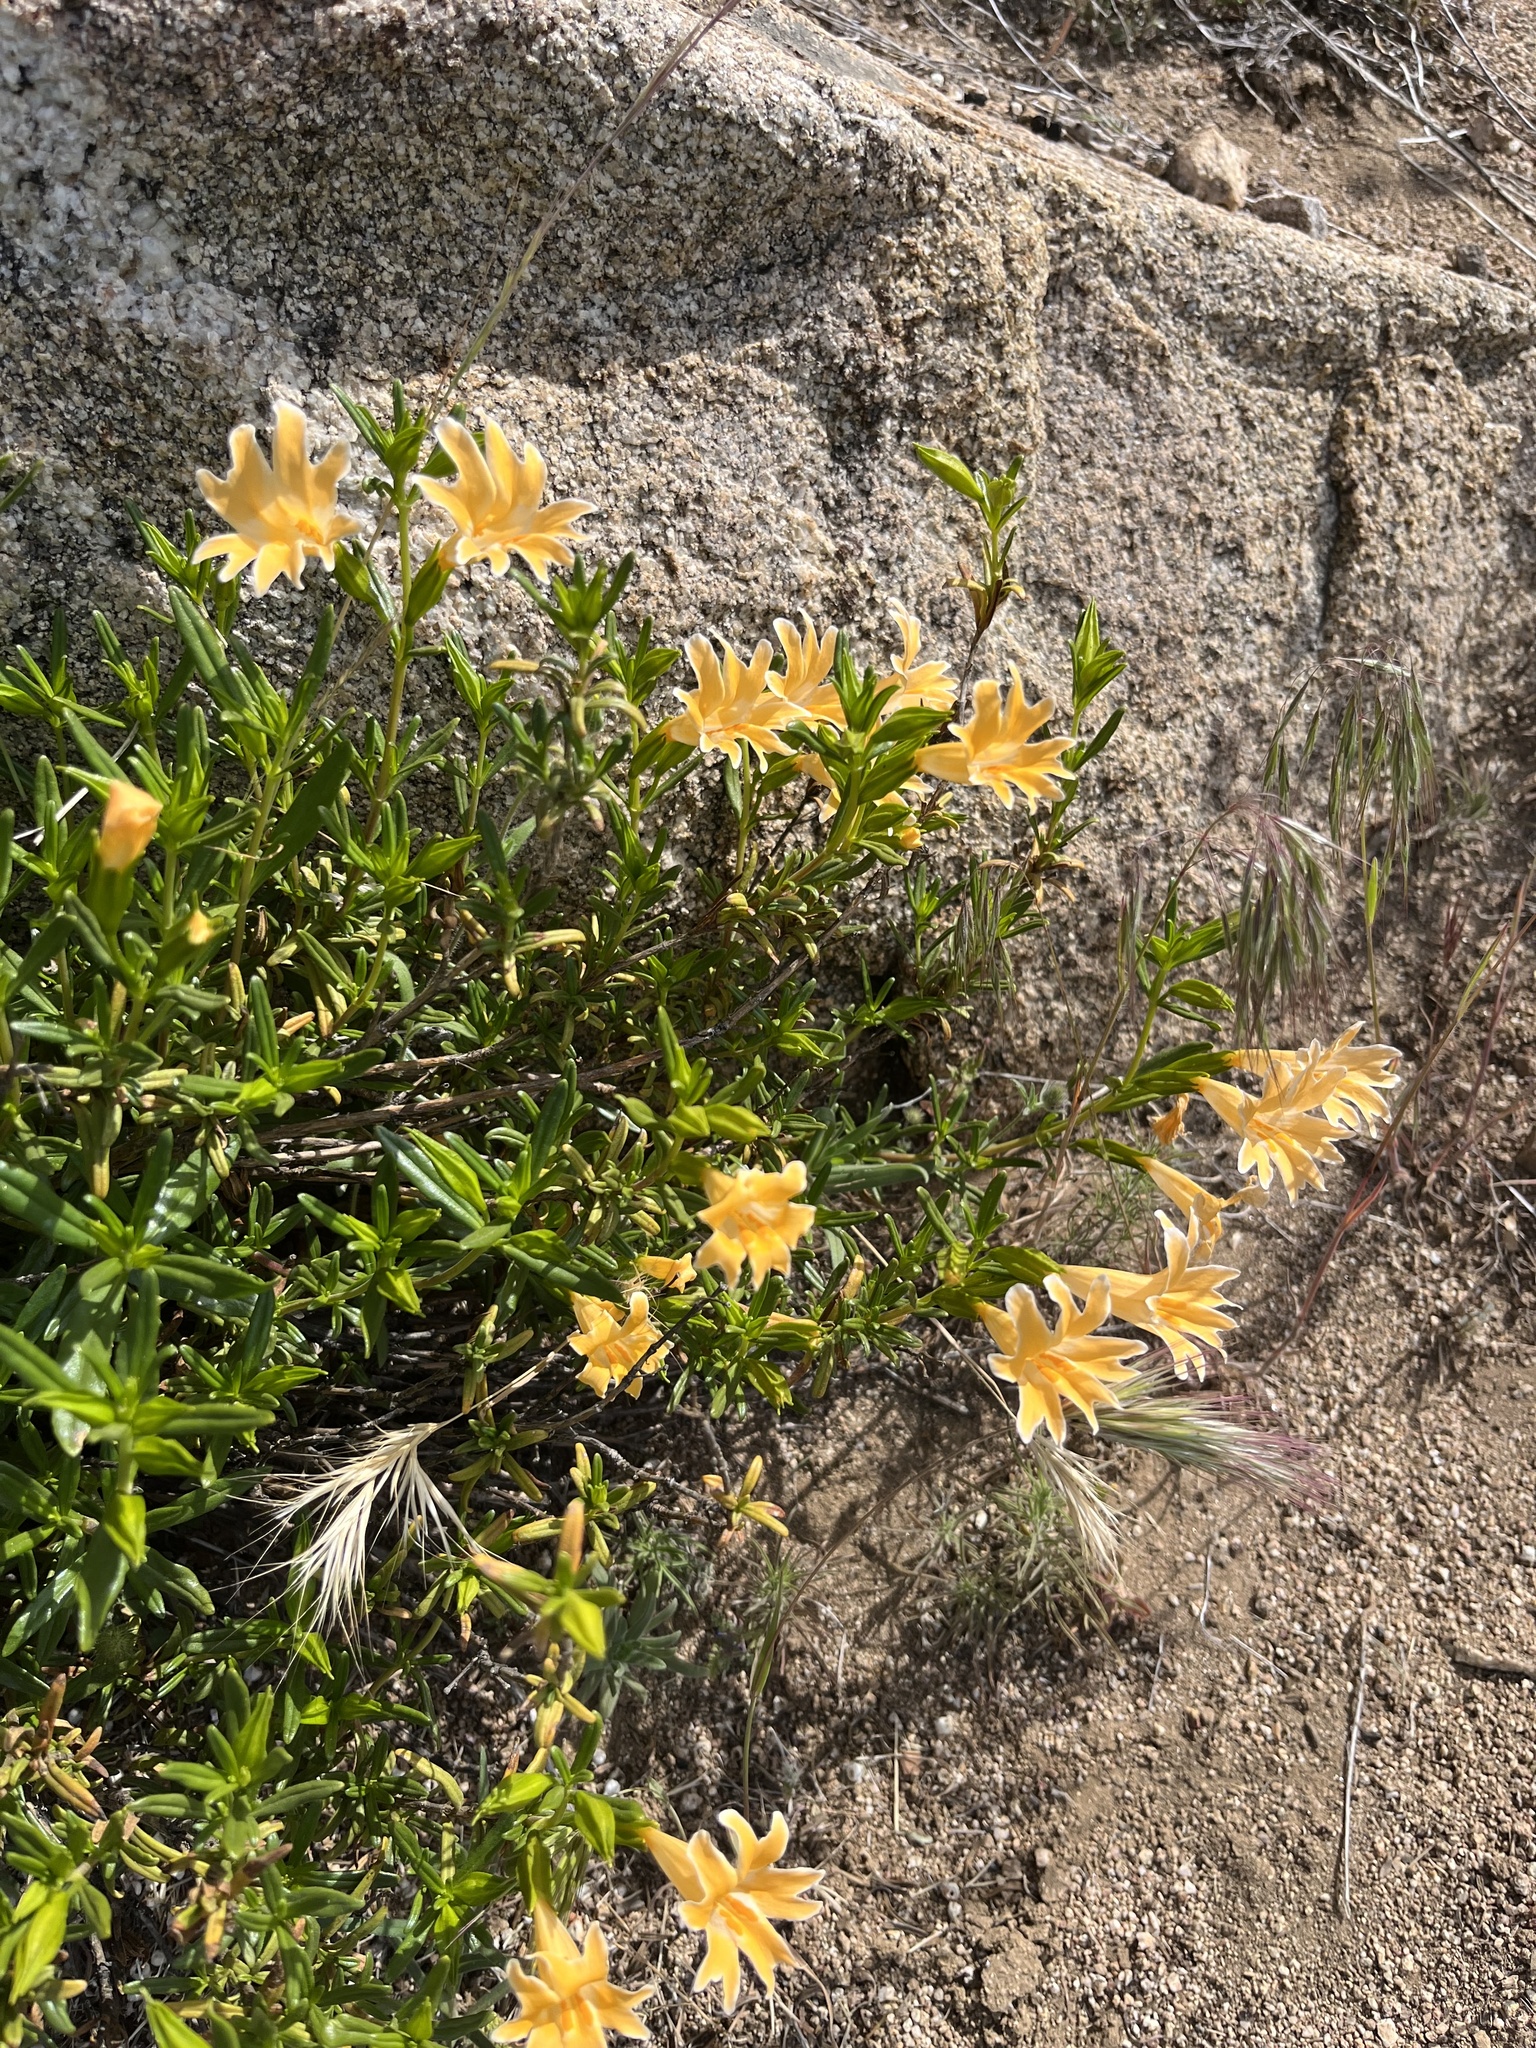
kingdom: Plantae
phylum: Tracheophyta
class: Magnoliopsida
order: Lamiales
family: Phrymaceae
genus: Diplacus
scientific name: Diplacus linearis
